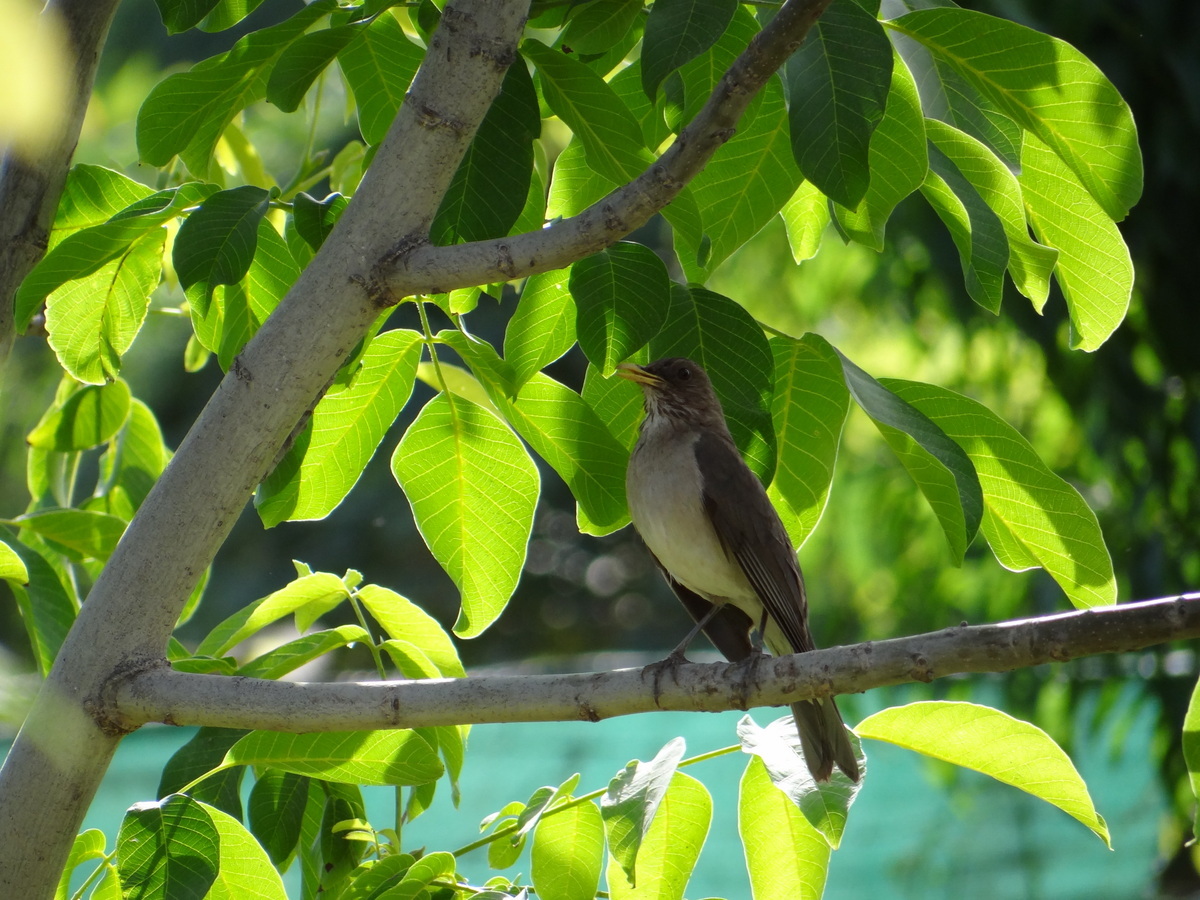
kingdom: Animalia
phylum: Chordata
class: Aves
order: Passeriformes
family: Turdidae
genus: Turdus
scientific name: Turdus amaurochalinus
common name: Creamy-bellied thrush
